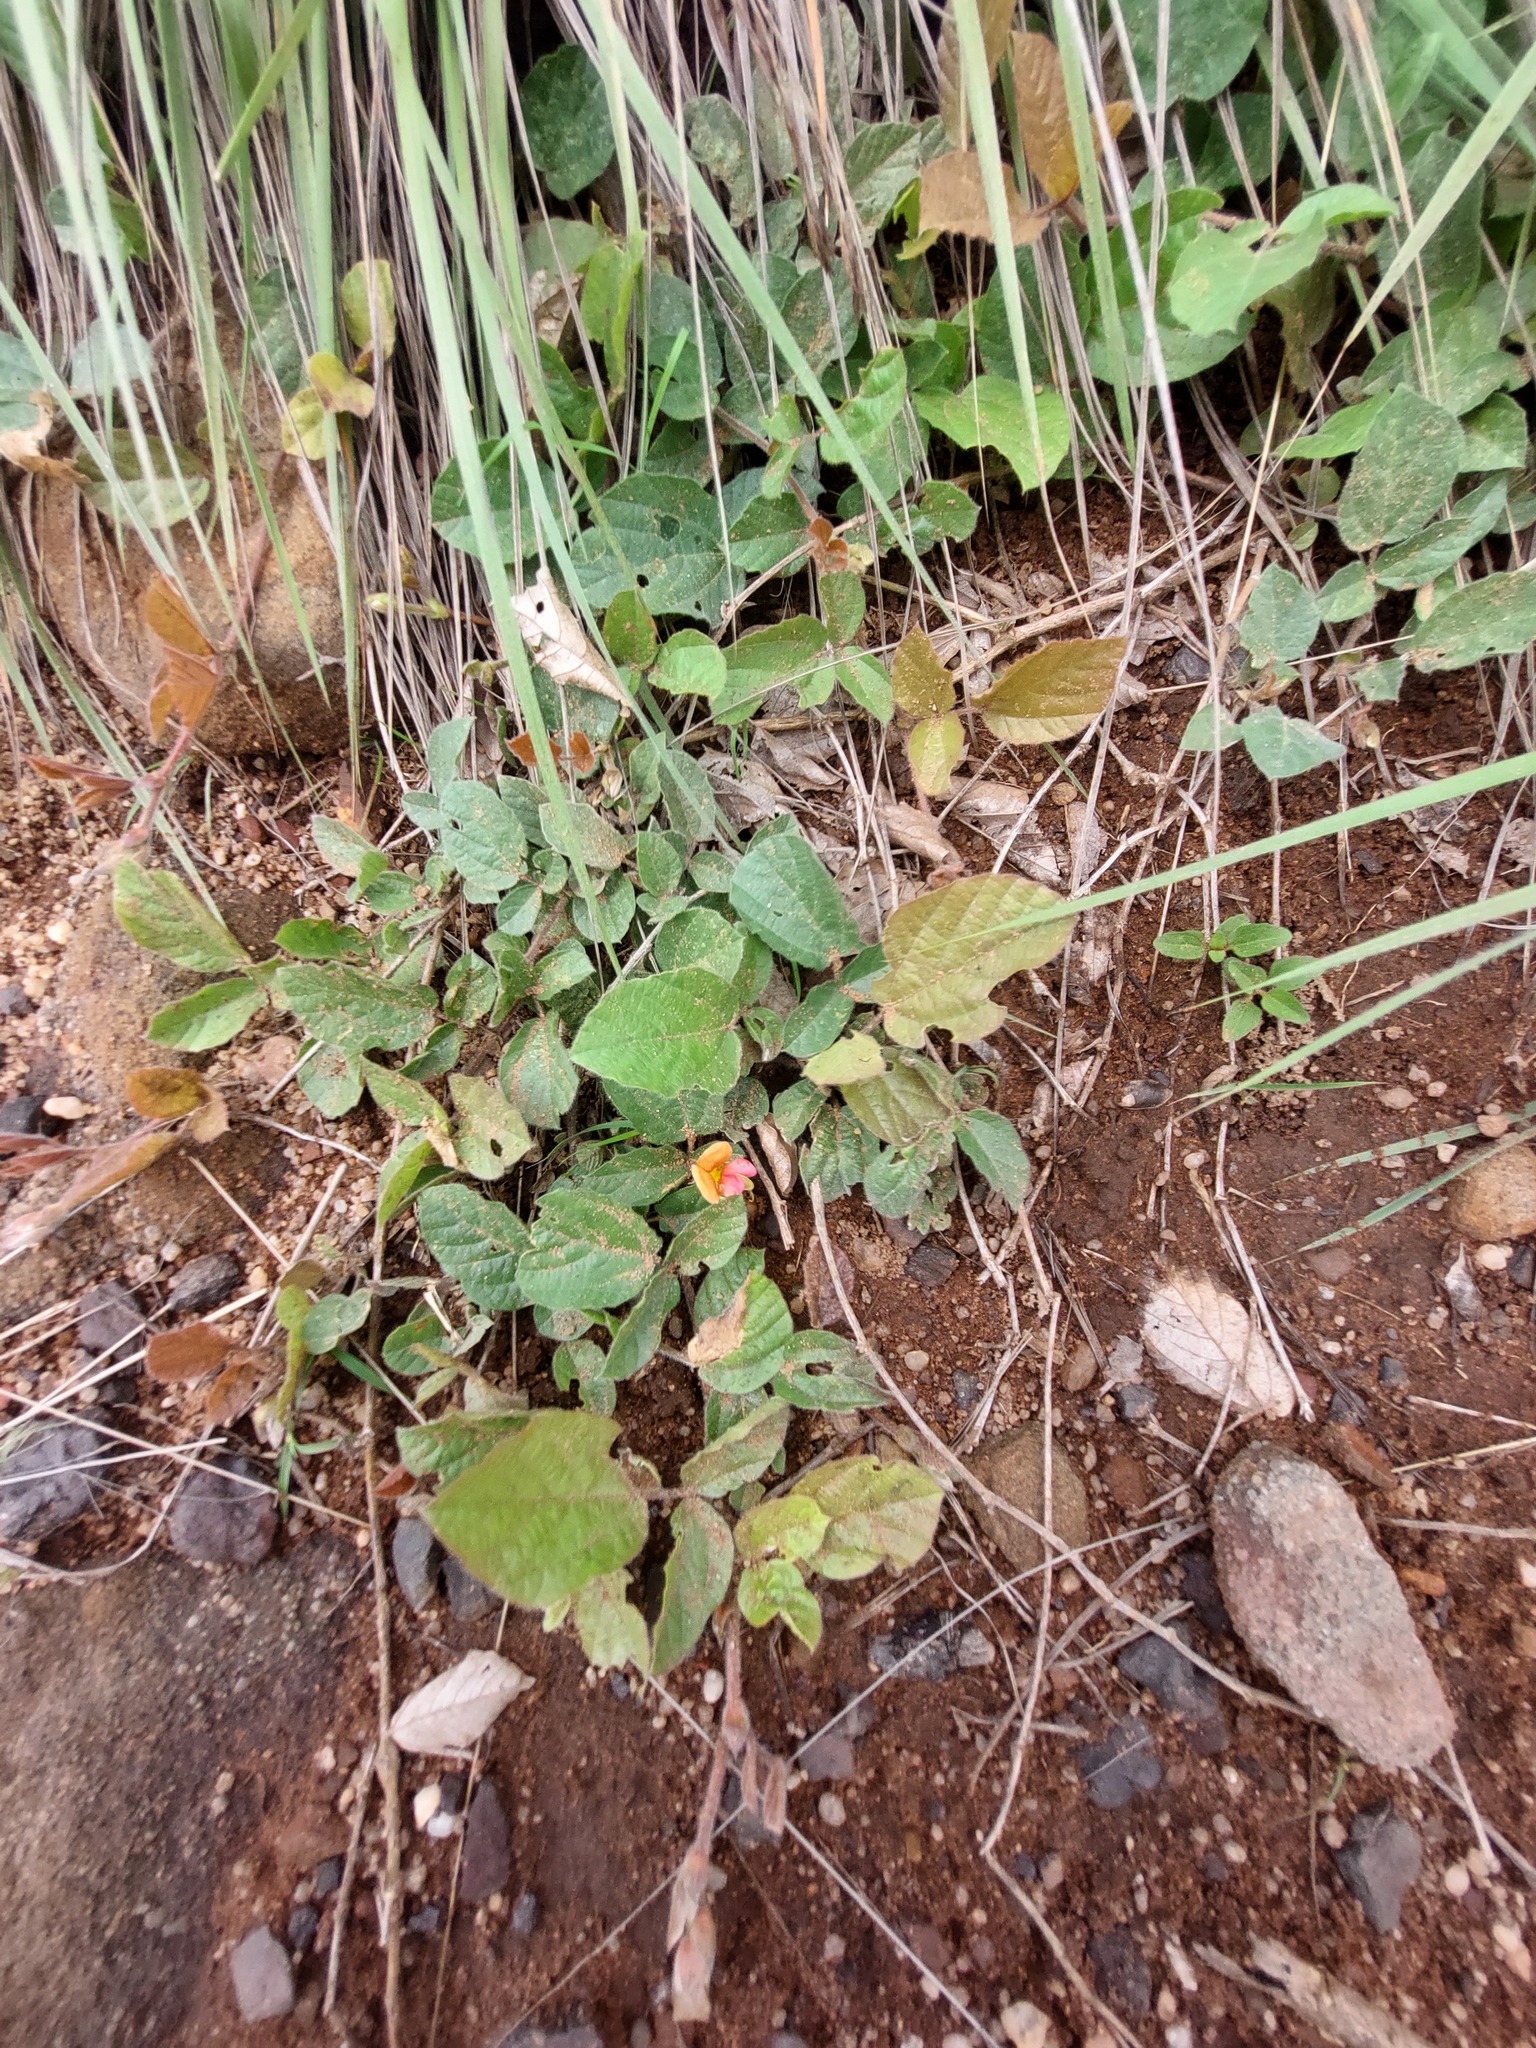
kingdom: Plantae
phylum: Tracheophyta
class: Magnoliopsida
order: Fabales
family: Fabaceae
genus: Rhynchosia
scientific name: Rhynchosia monophylla
